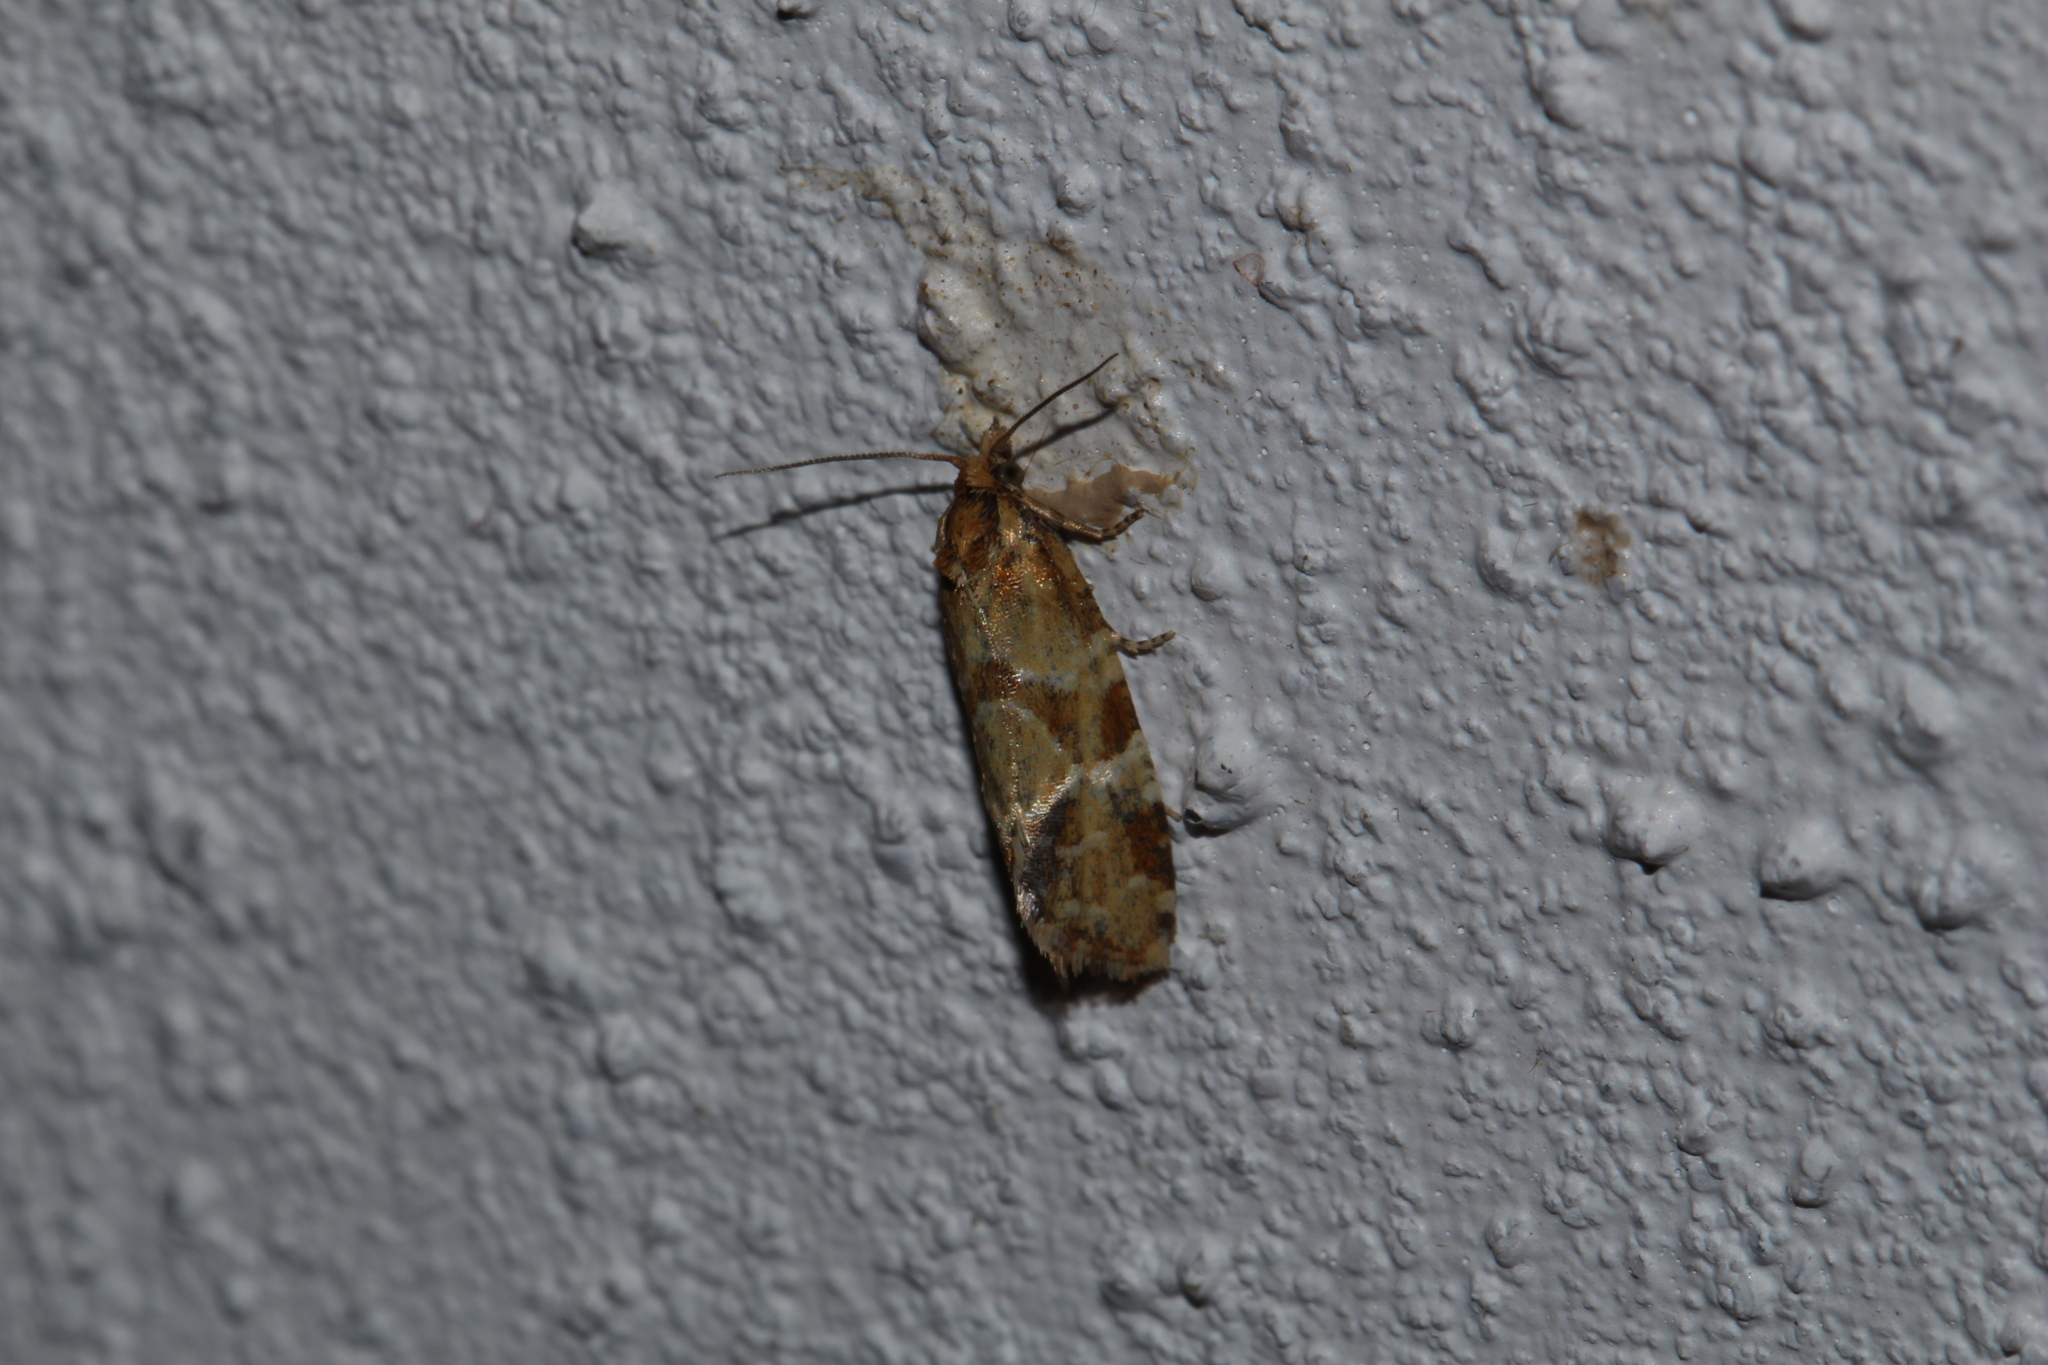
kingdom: Animalia
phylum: Arthropoda
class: Insecta
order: Lepidoptera
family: Tortricidae
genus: Aethes
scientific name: Aethes hartmanniana
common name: Scabious conch
